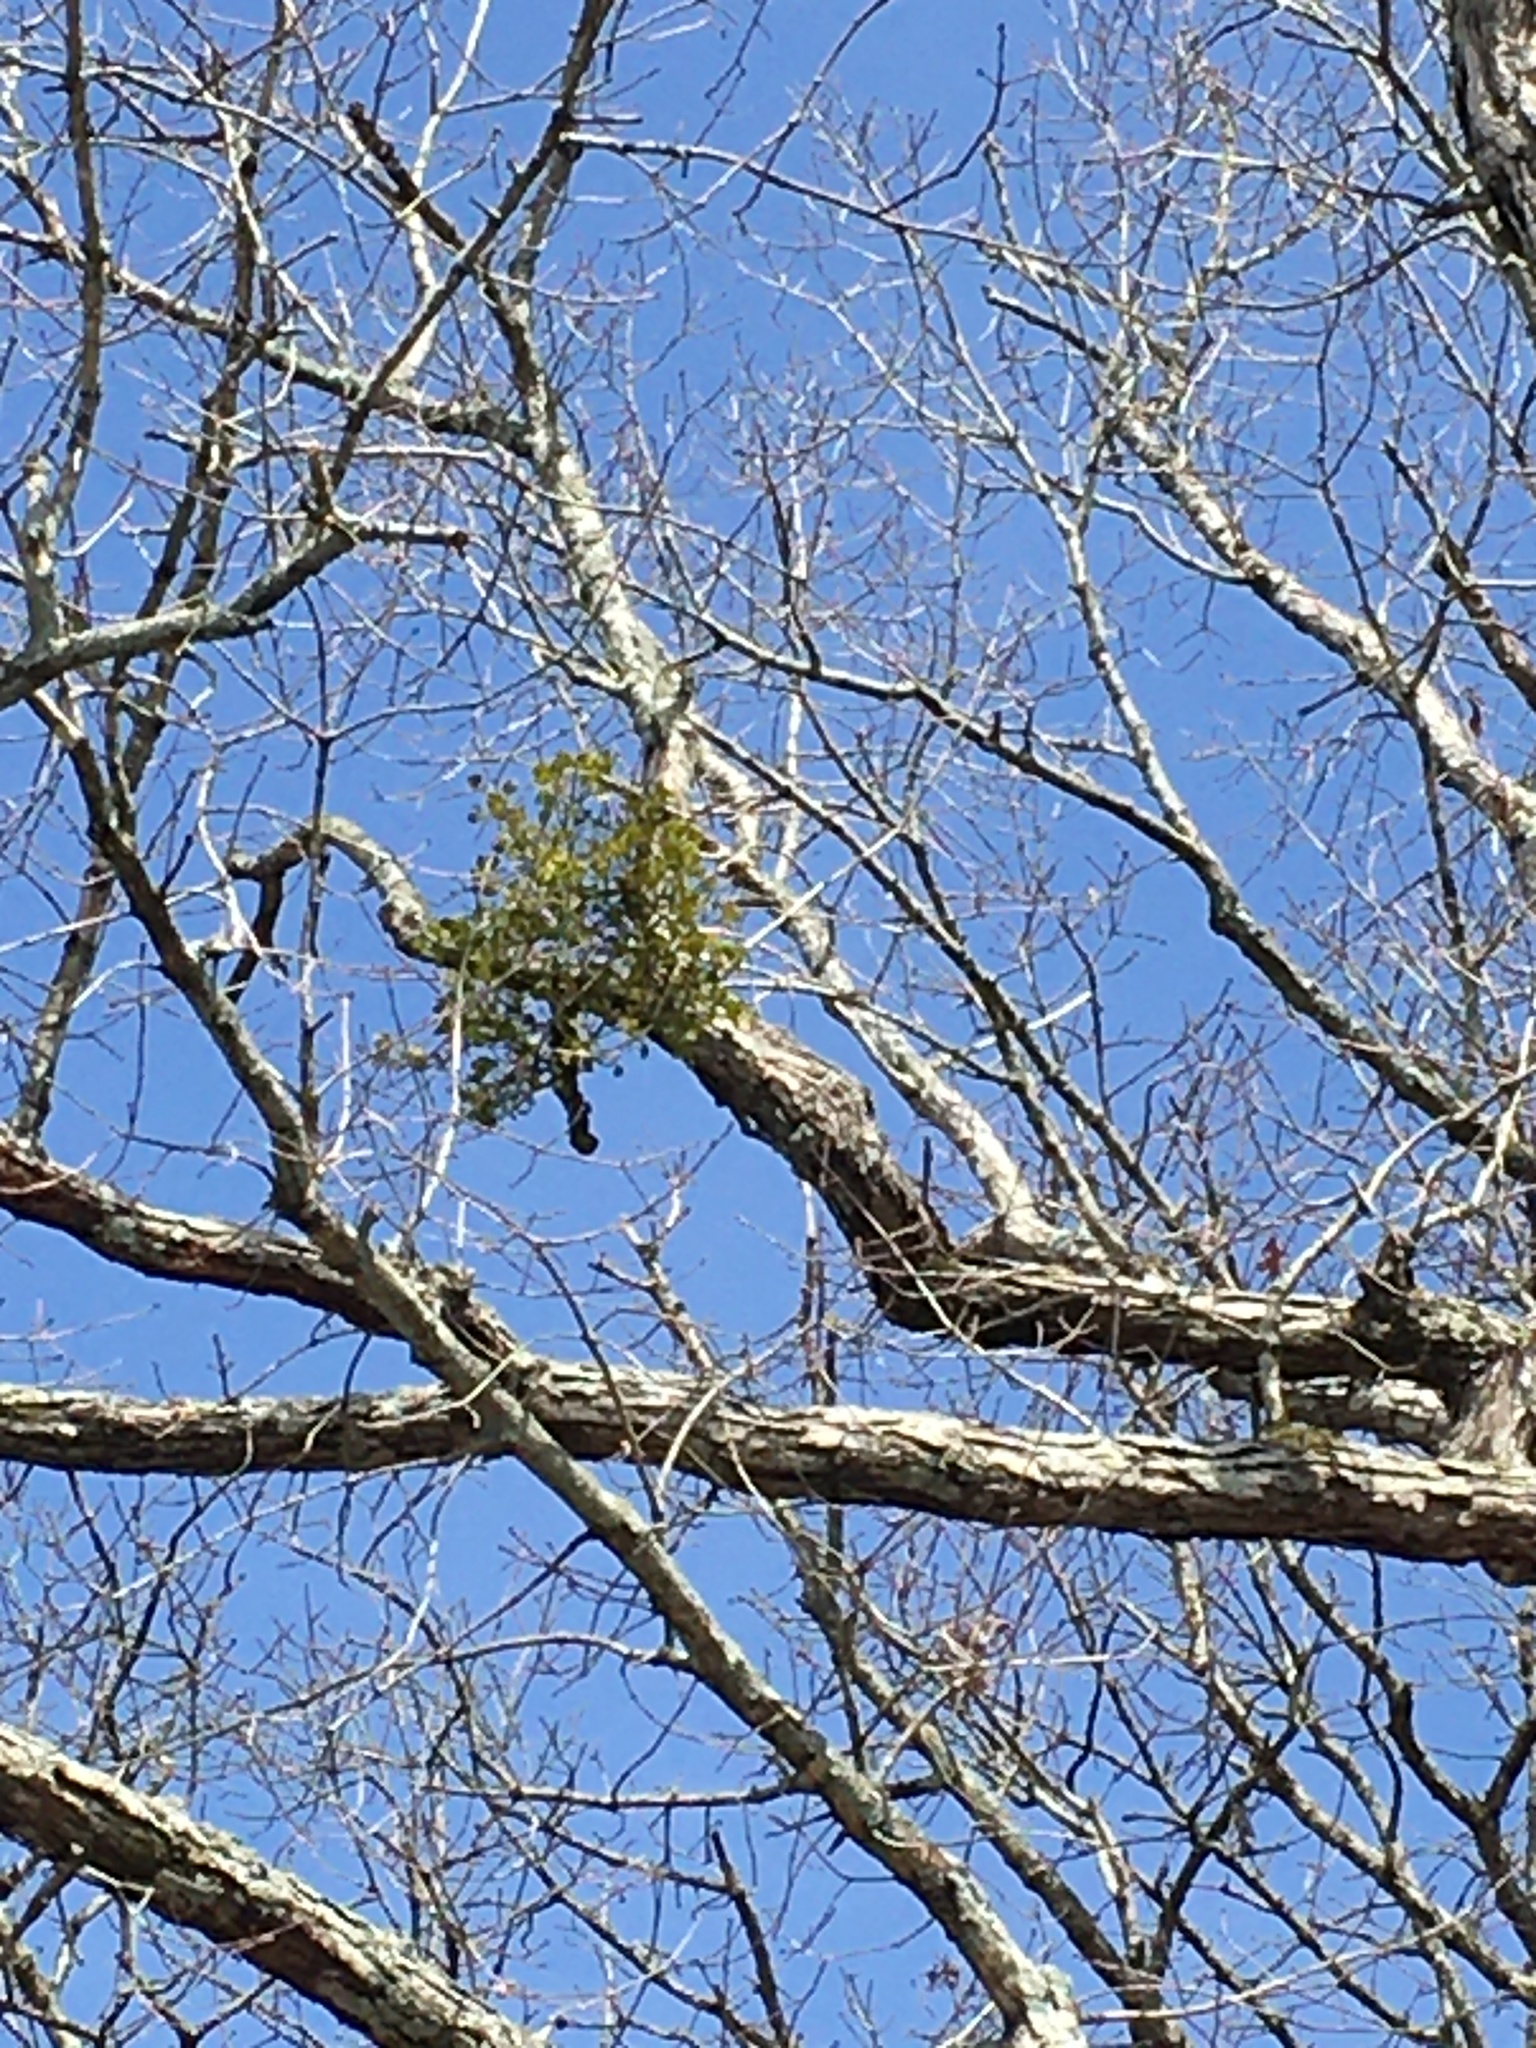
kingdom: Plantae
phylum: Tracheophyta
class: Magnoliopsida
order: Santalales
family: Viscaceae
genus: Phoradendron
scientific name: Phoradendron leucarpum
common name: Pacific mistletoe
